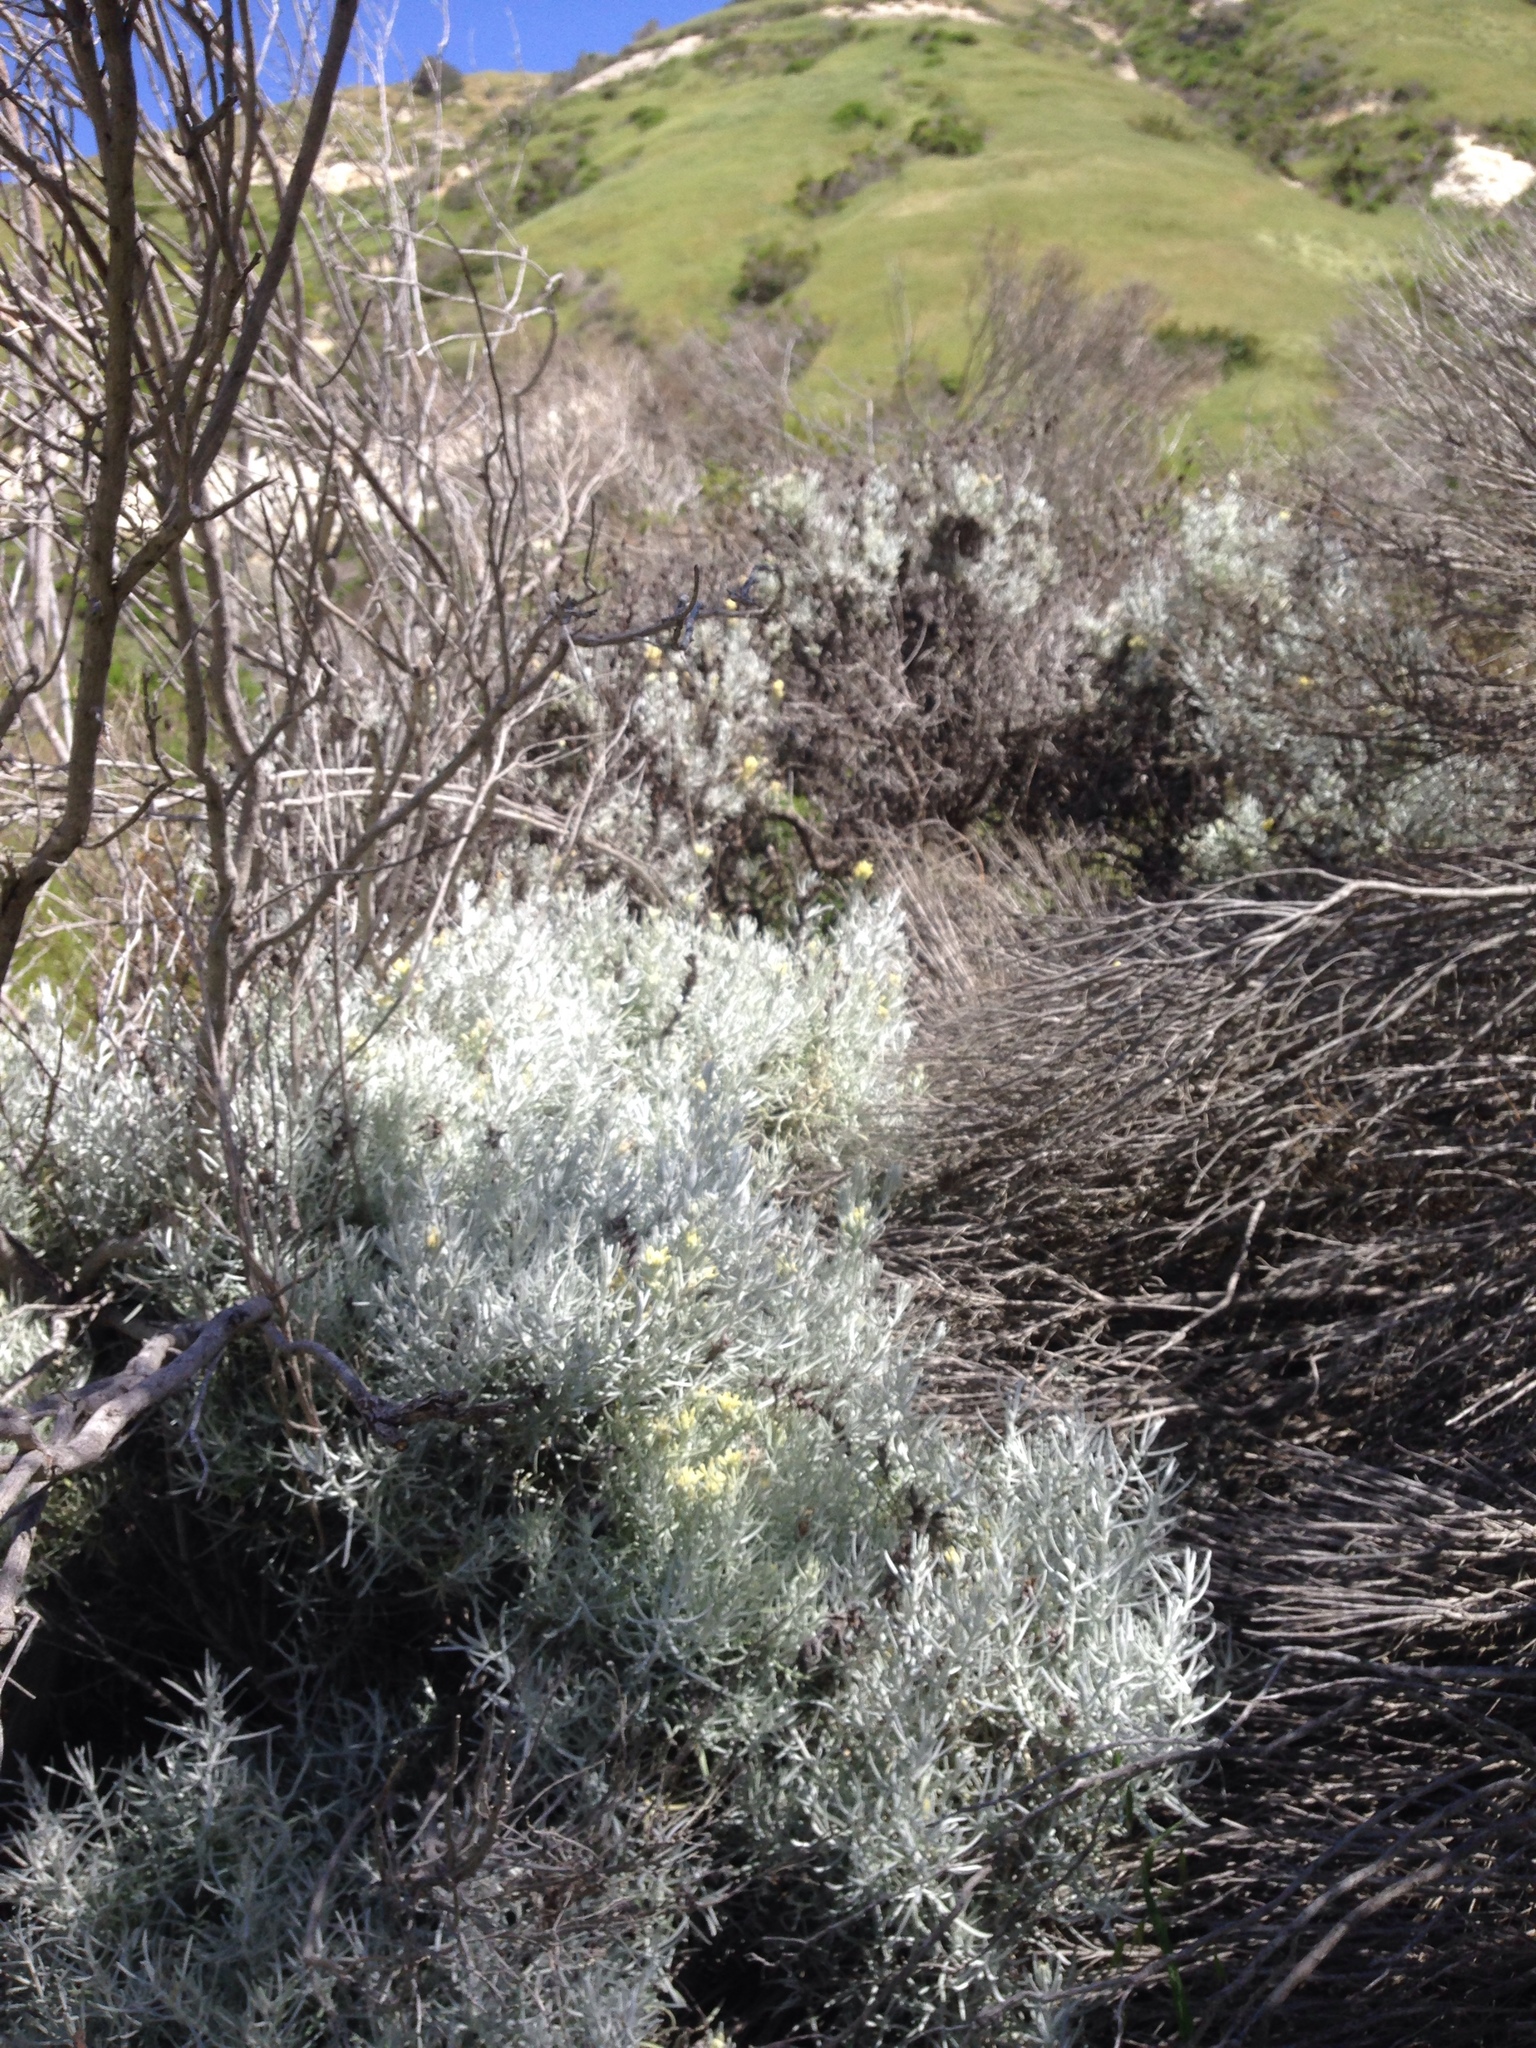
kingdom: Plantae
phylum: Tracheophyta
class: Magnoliopsida
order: Lamiales
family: Orobanchaceae
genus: Castilleja
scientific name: Castilleja hololeuca
